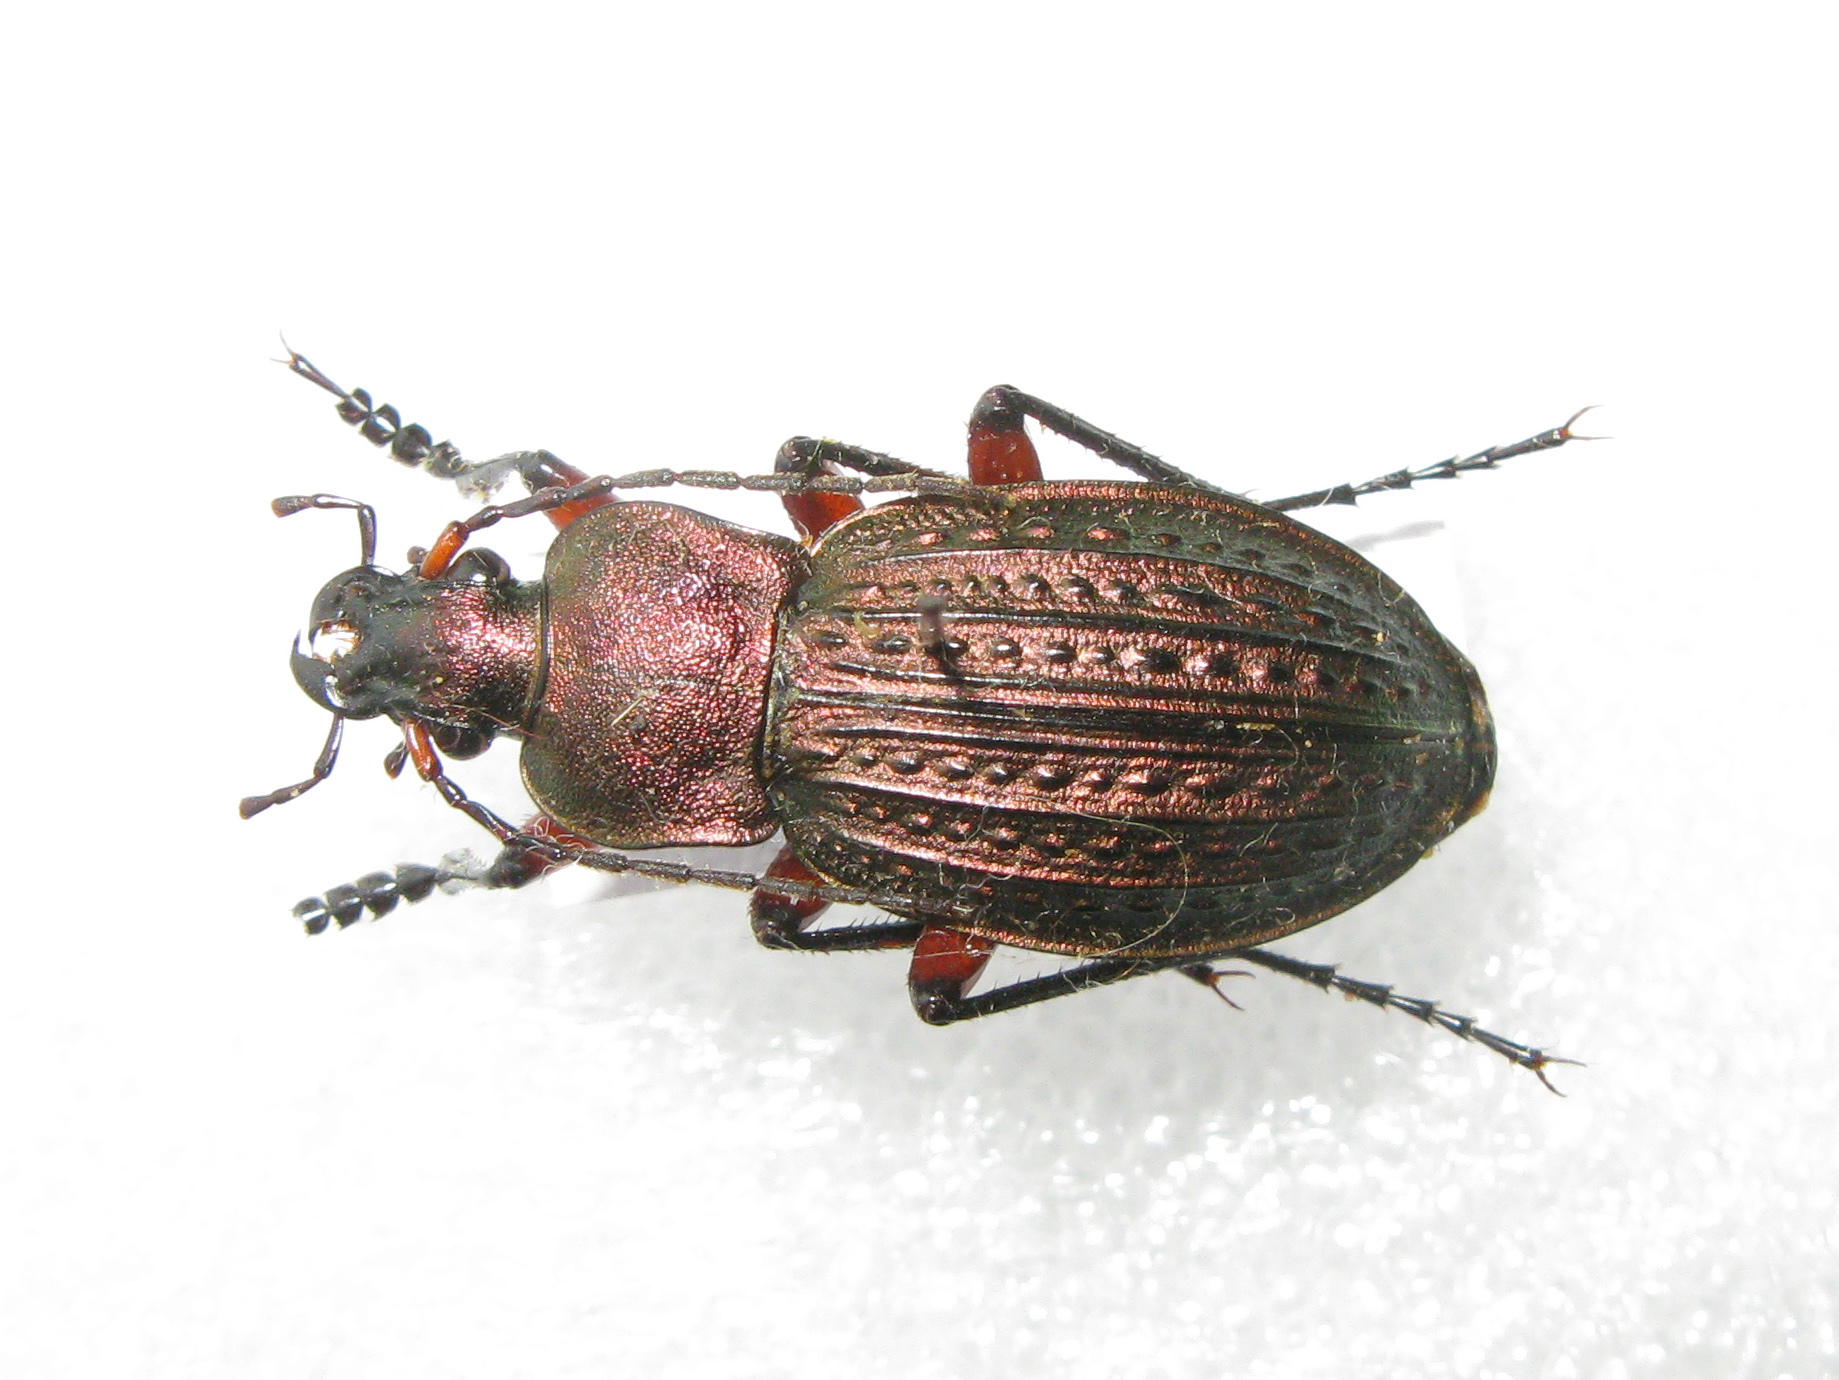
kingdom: Animalia
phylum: Arthropoda
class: Insecta
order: Coleoptera
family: Carabidae
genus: Carabus
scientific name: Carabus cancellatus
